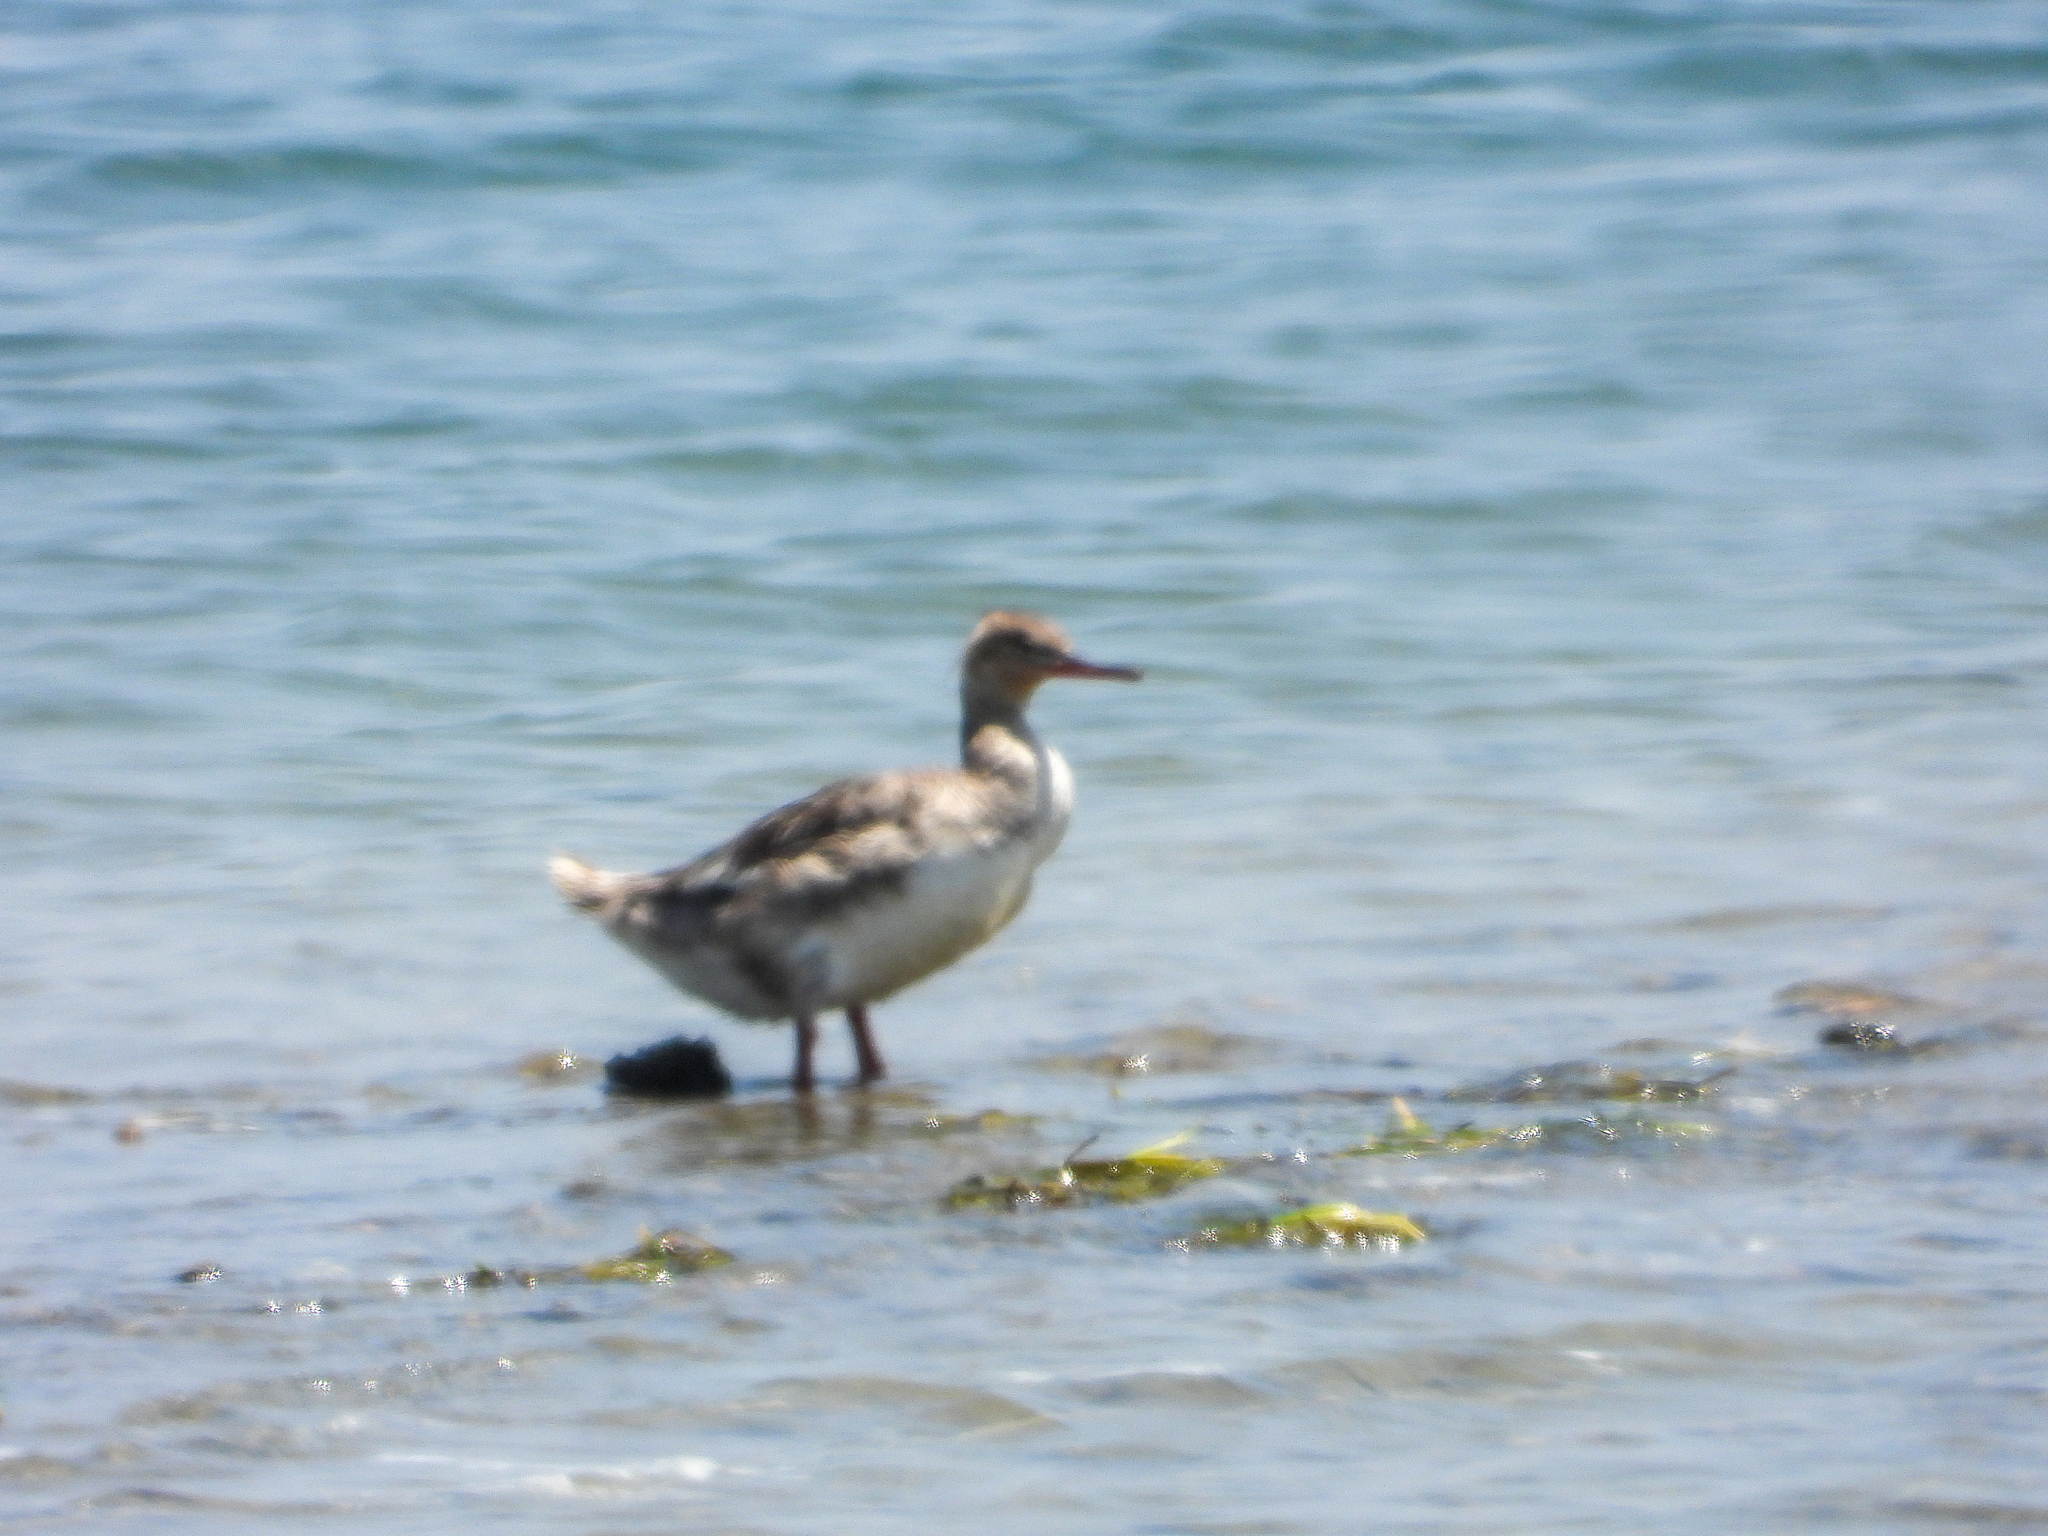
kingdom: Animalia
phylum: Chordata
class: Aves
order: Anseriformes
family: Anatidae
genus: Mergus
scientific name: Mergus serrator
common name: Red-breasted merganser
